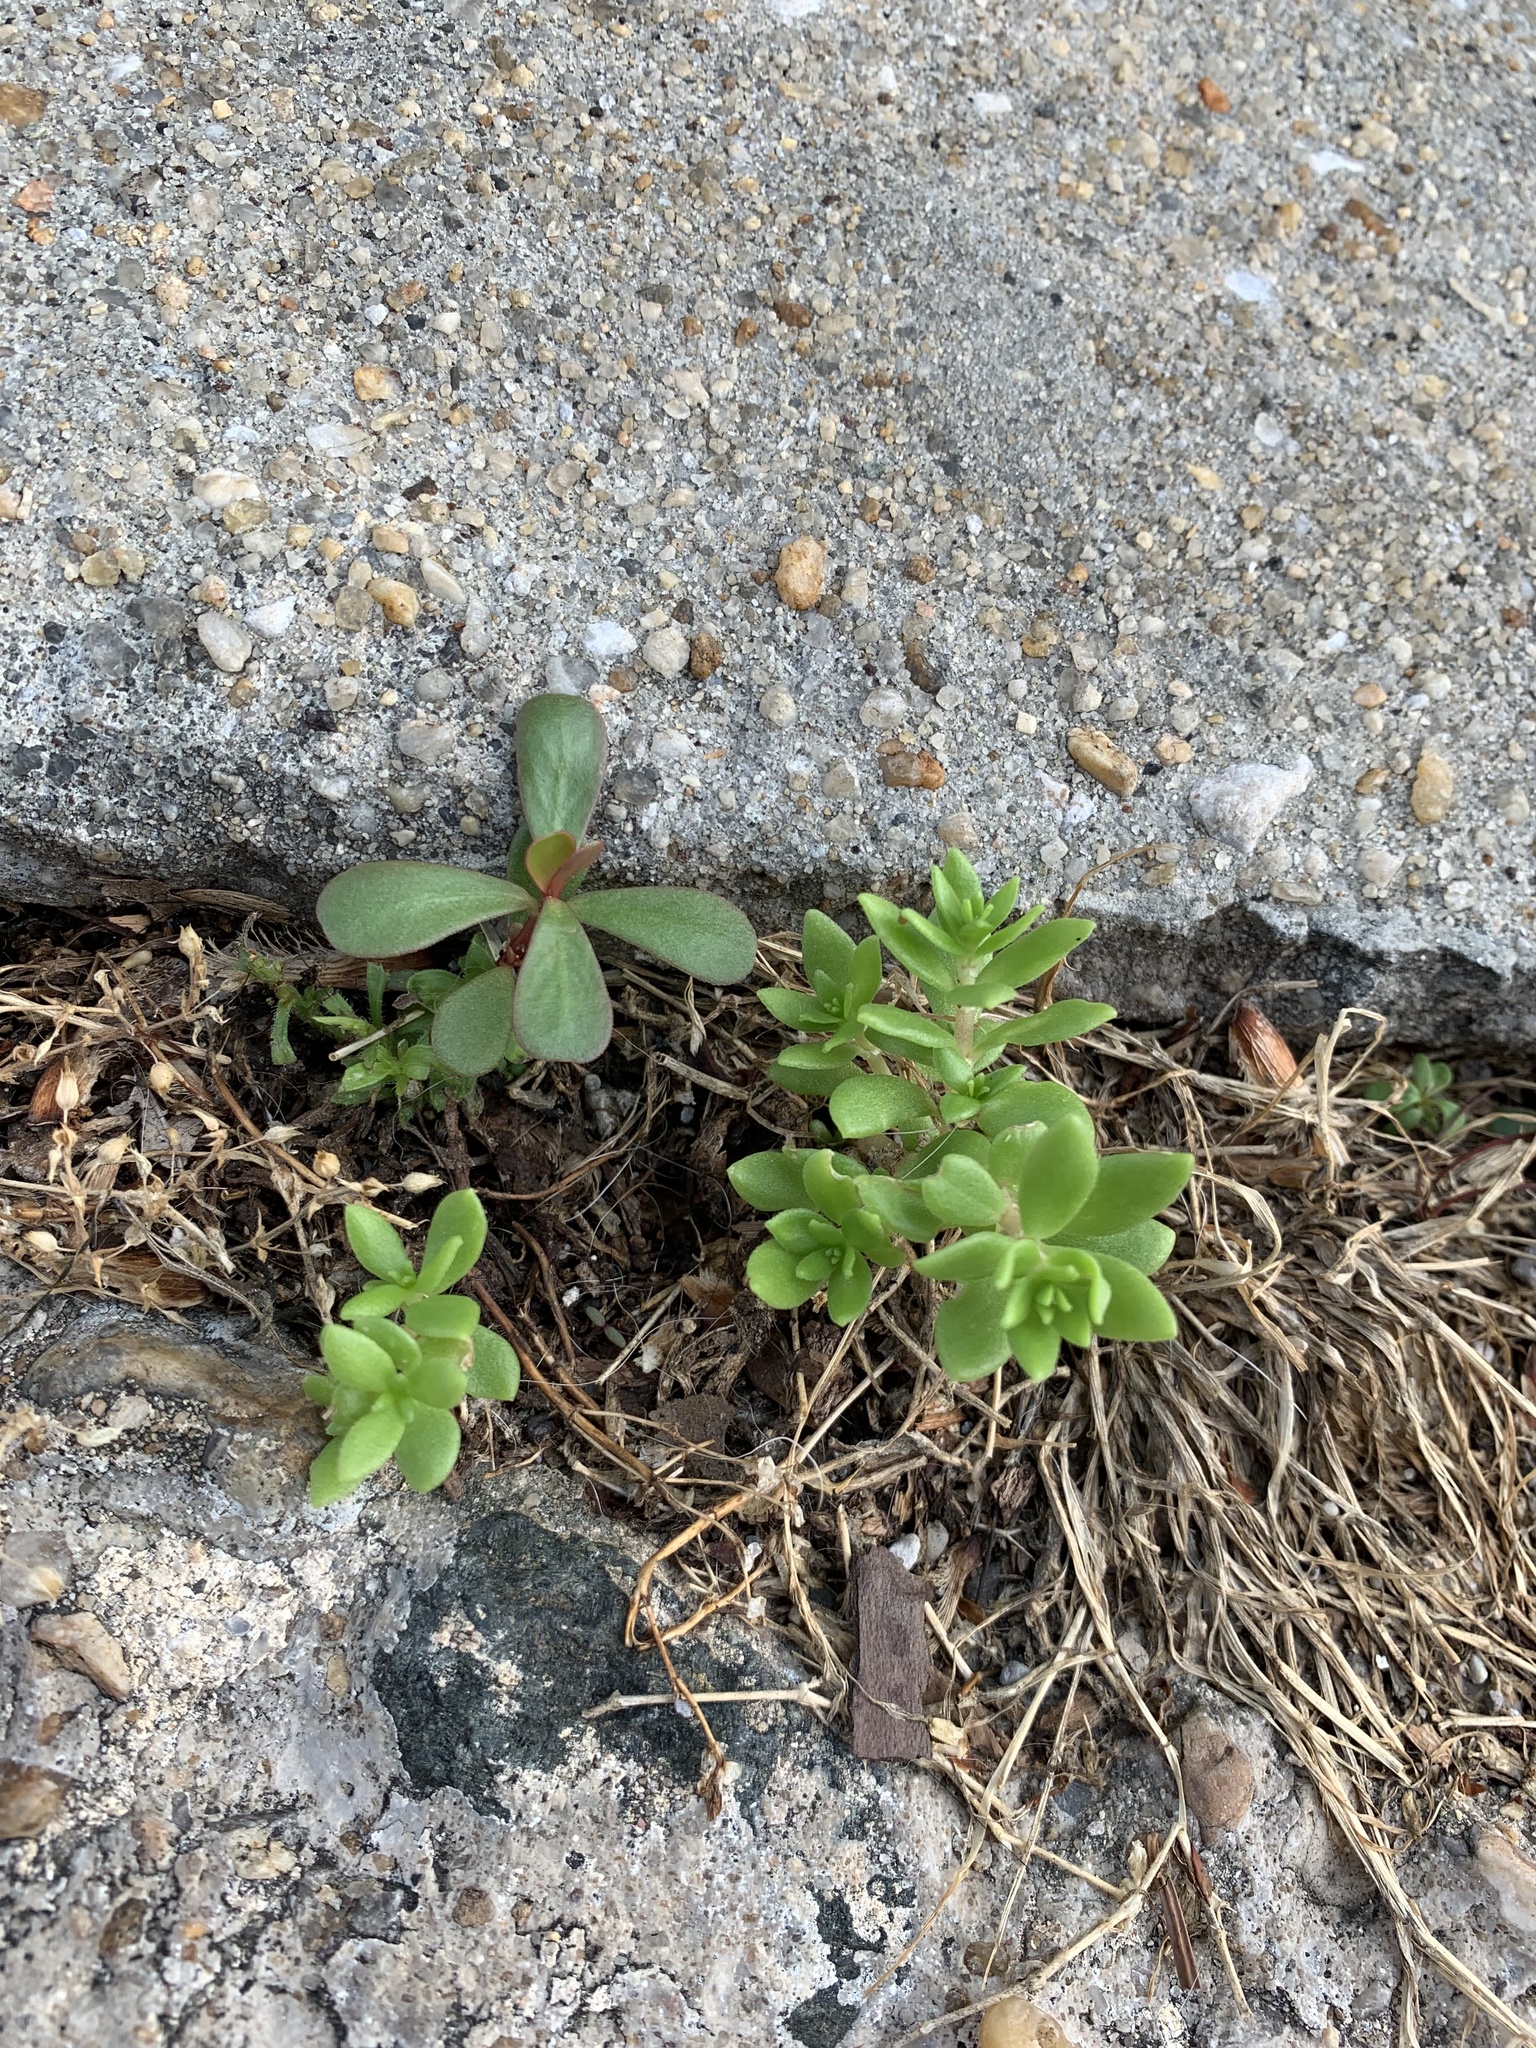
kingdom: Plantae
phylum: Tracheophyta
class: Magnoliopsida
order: Saxifragales
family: Crassulaceae
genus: Sedum
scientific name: Sedum sarmentosum
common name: Stringy stonecrop
